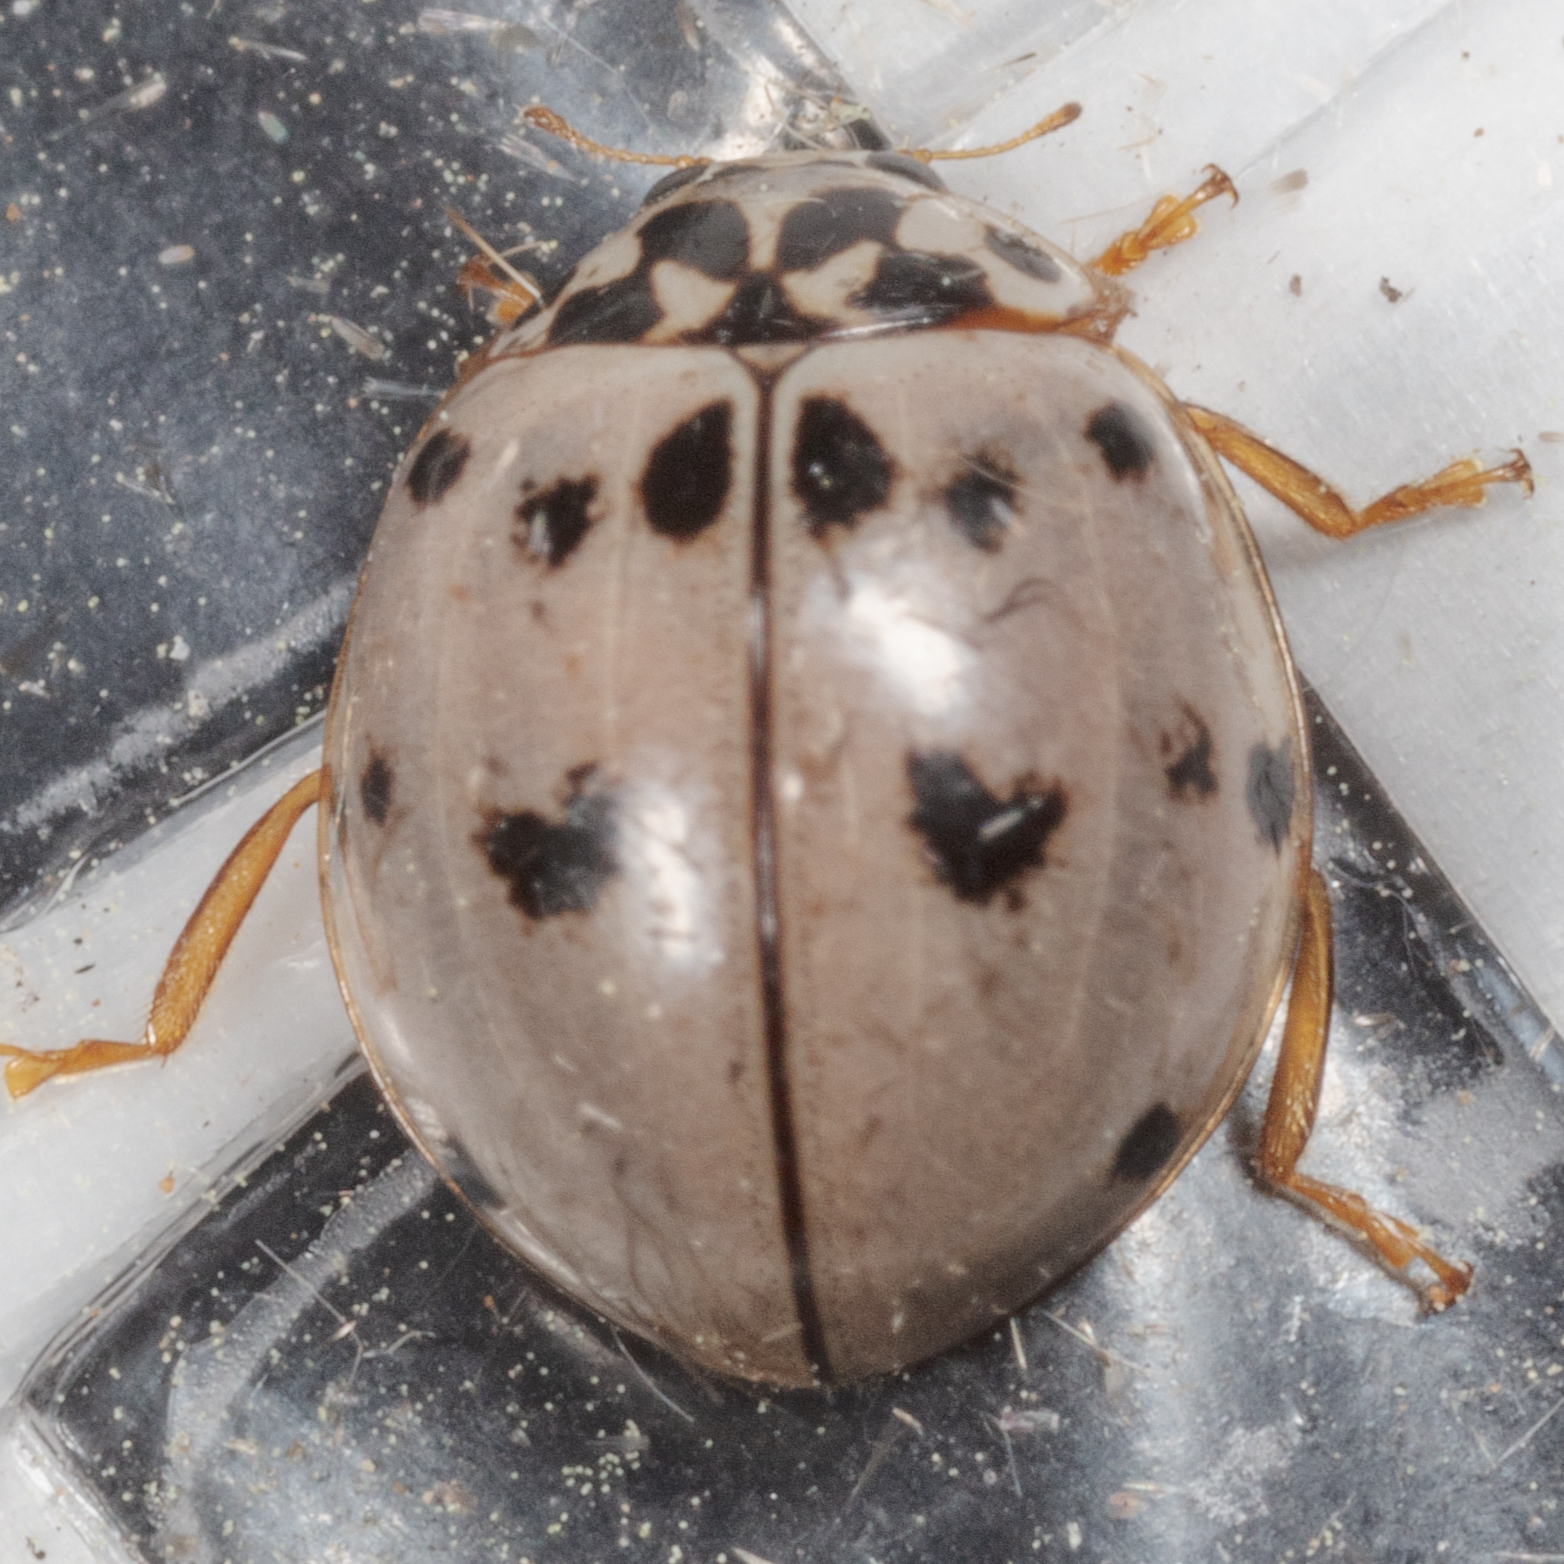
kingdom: Animalia
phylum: Arthropoda
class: Insecta
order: Coleoptera
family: Coccinellidae
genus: Olla
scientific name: Olla v-nigrum
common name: Ashy gray lady beetle
